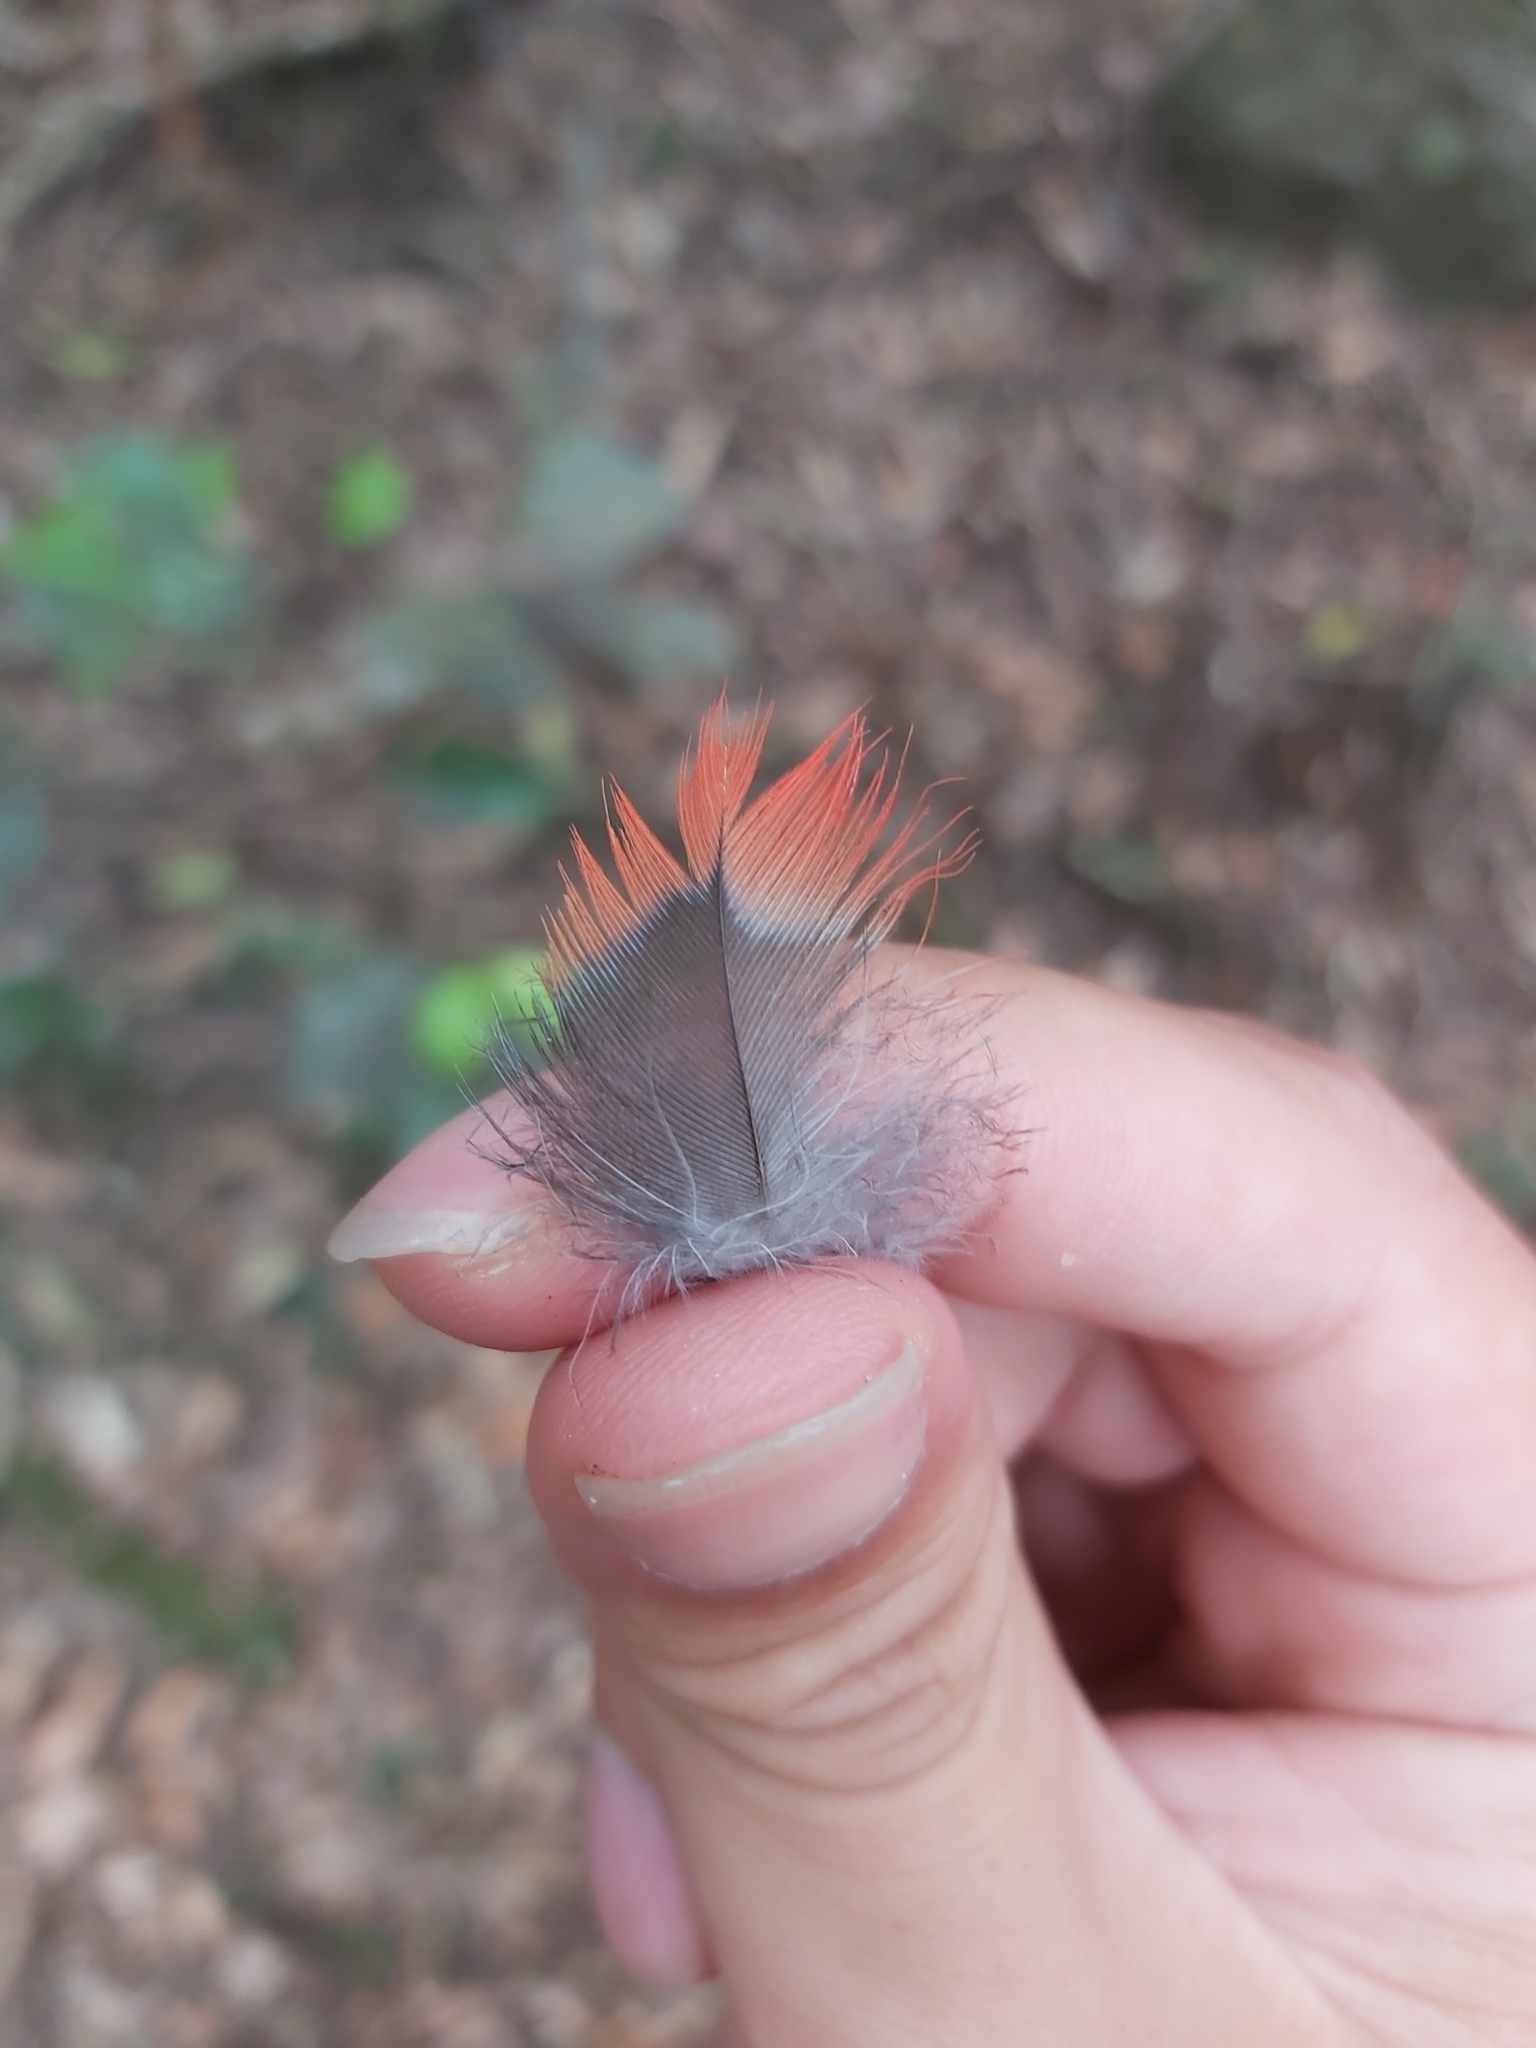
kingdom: Animalia
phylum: Chordata
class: Aves
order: Psittaciformes
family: Psittacidae
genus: Platycercus
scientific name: Platycercus elegans
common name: Crimson rosella
